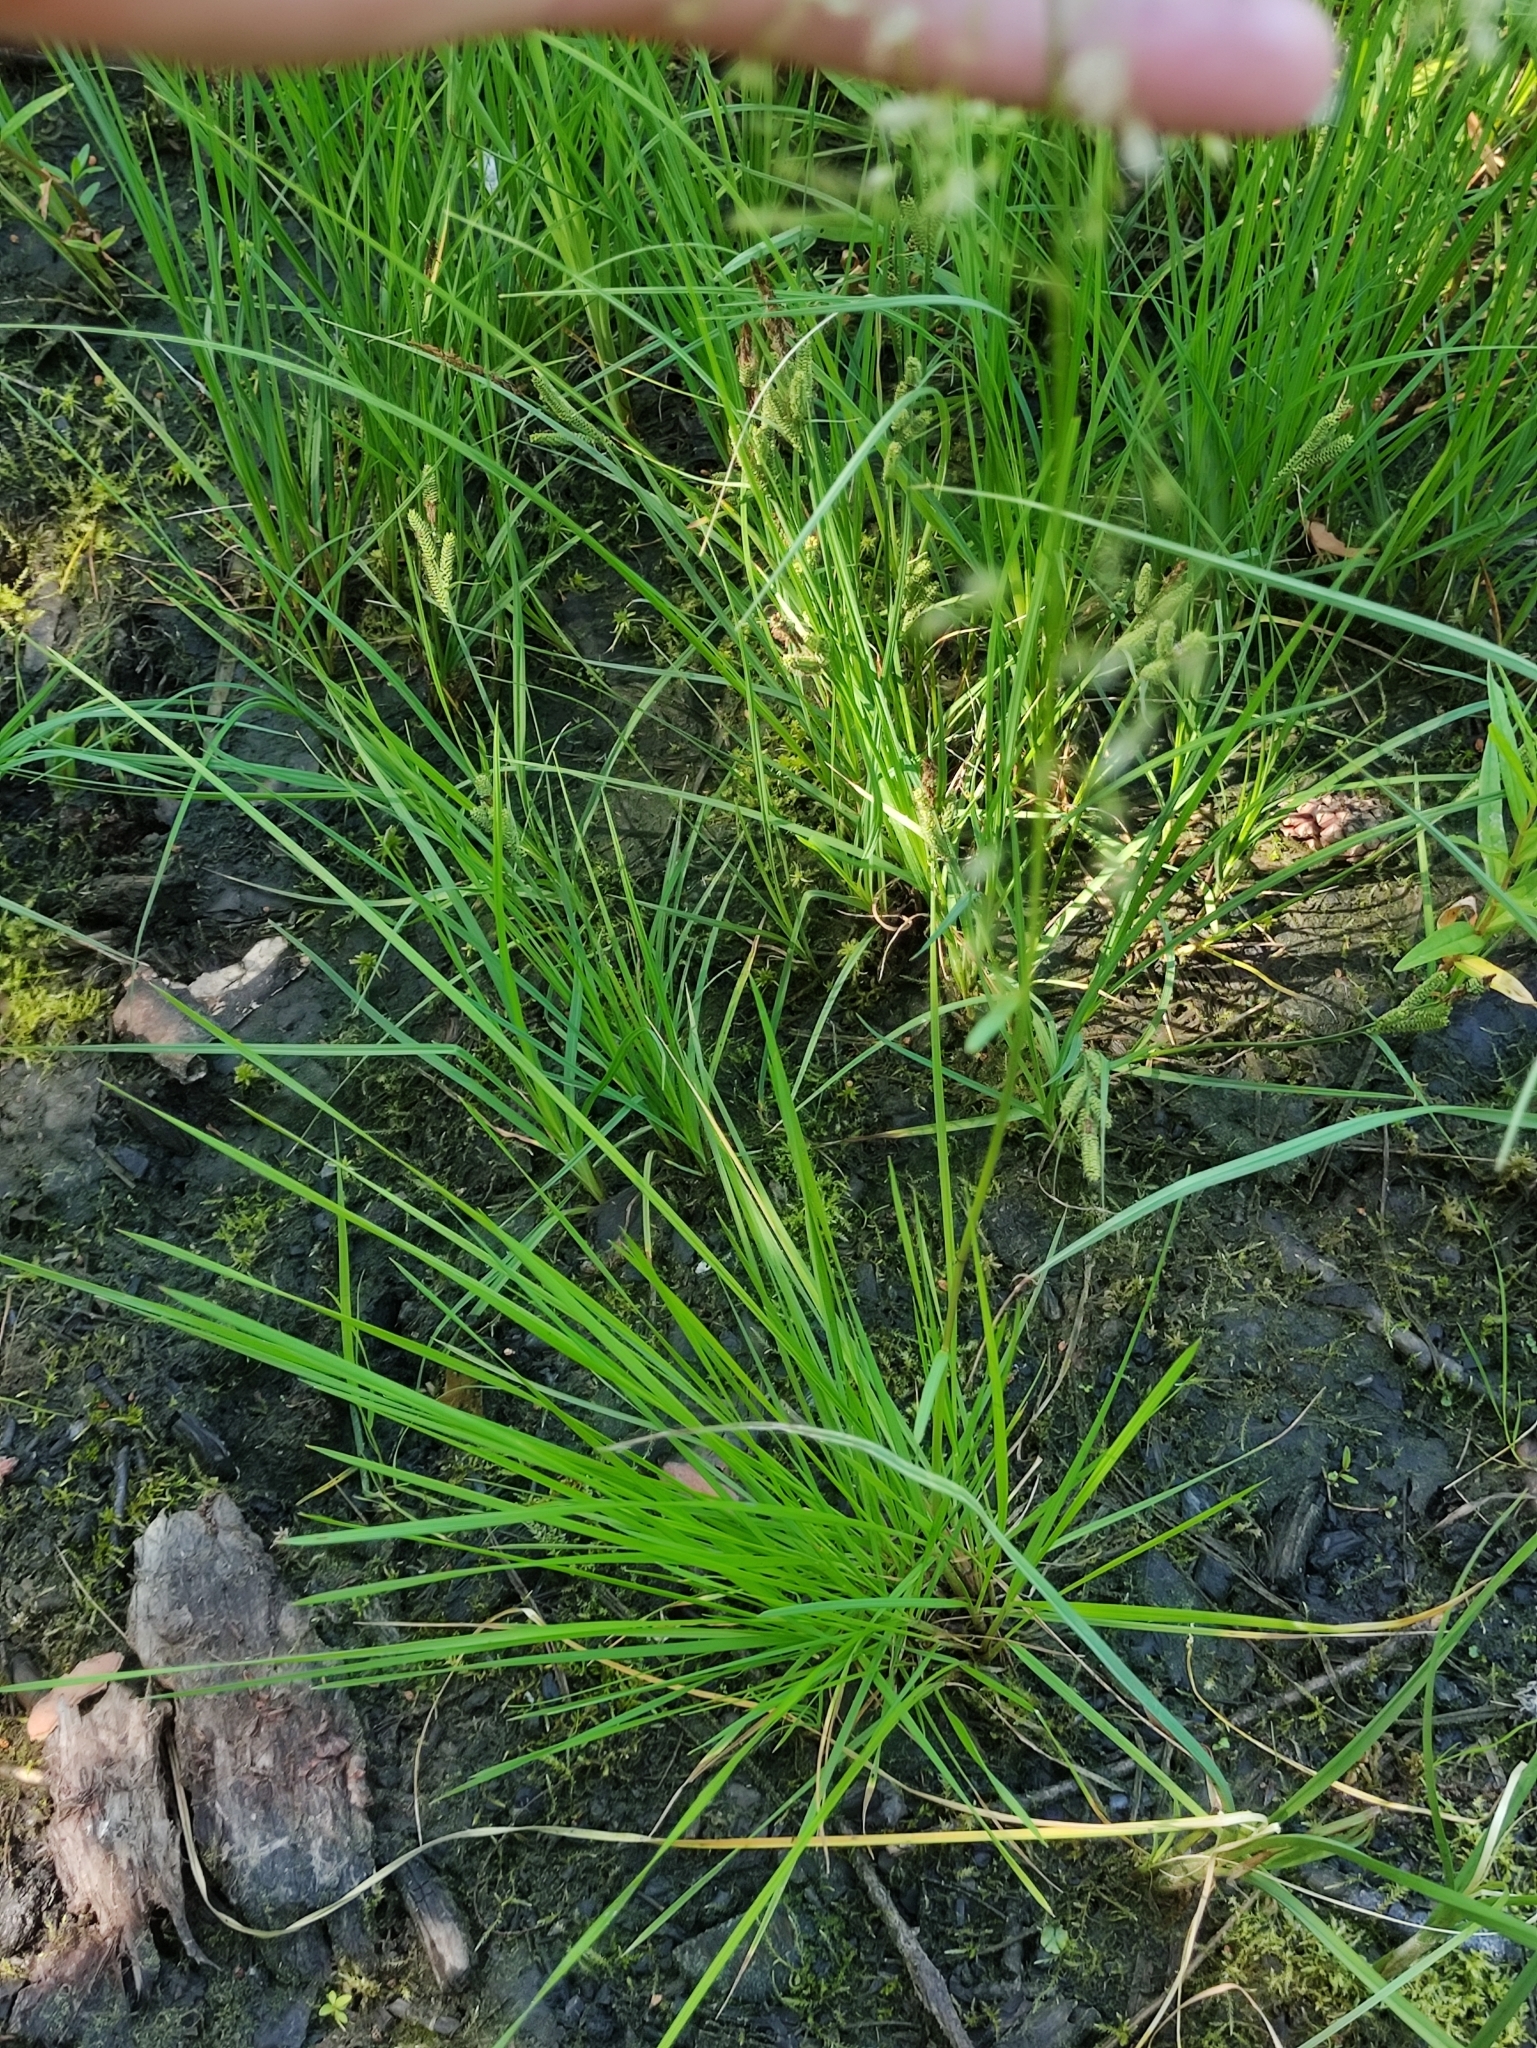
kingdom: Plantae
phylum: Tracheophyta
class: Liliopsida
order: Poales
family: Poaceae
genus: Deschampsia
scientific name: Deschampsia cespitosa
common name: Tufted hair-grass
